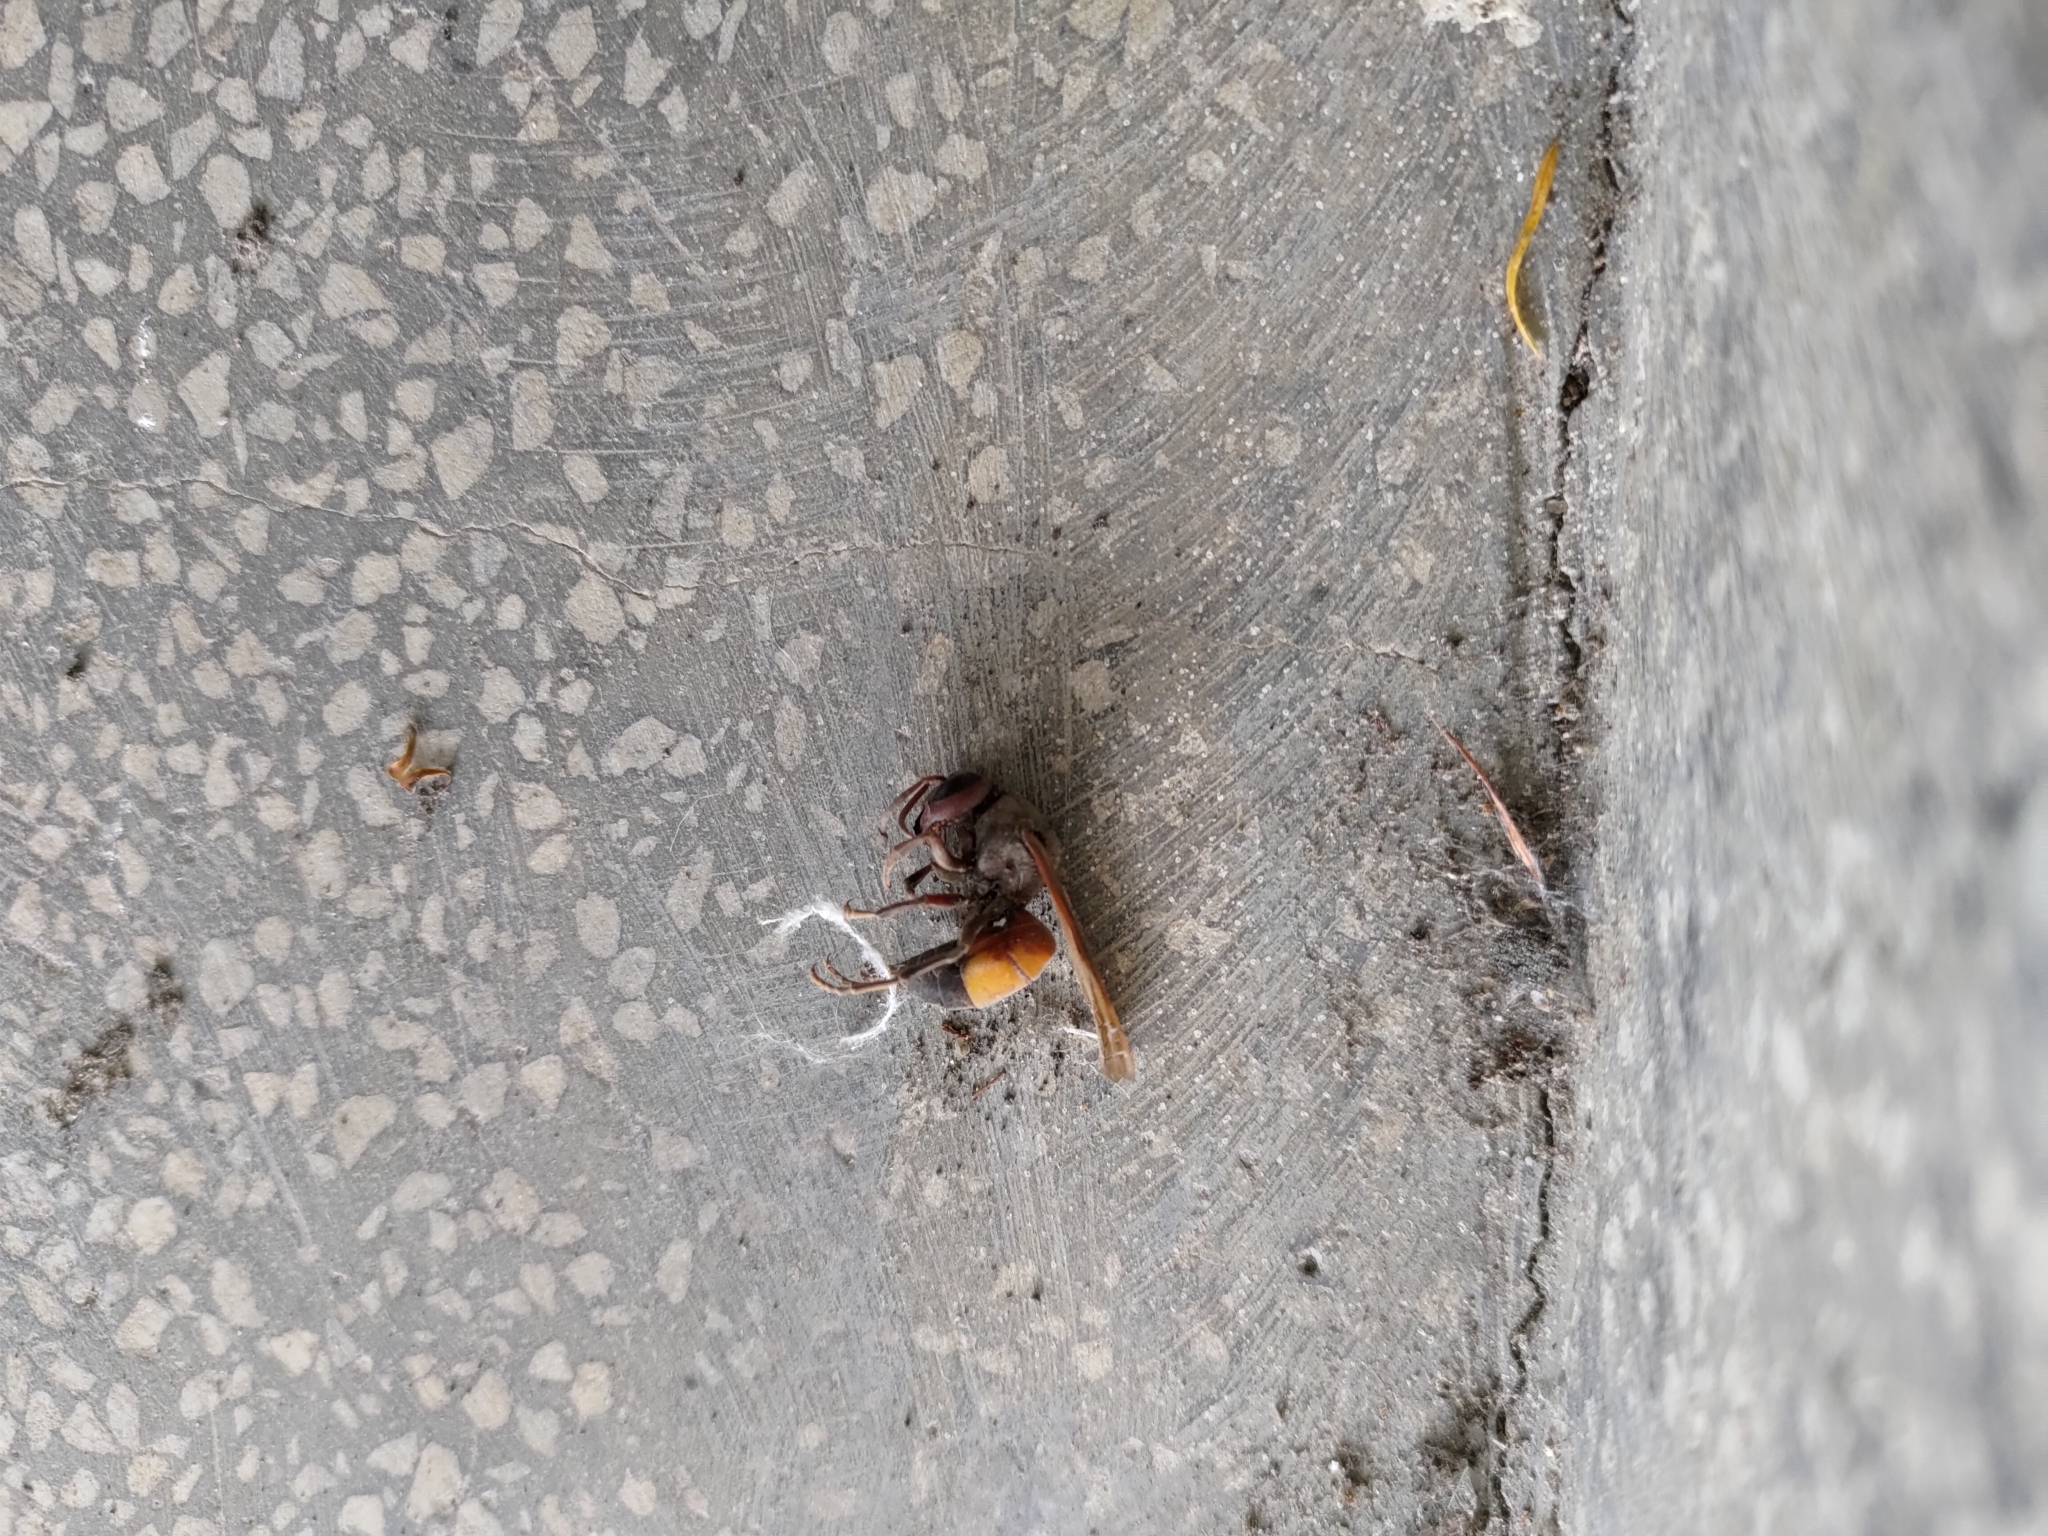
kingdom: Animalia
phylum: Arthropoda
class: Insecta
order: Hymenoptera
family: Vespidae
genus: Vespa
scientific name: Vespa affinis
